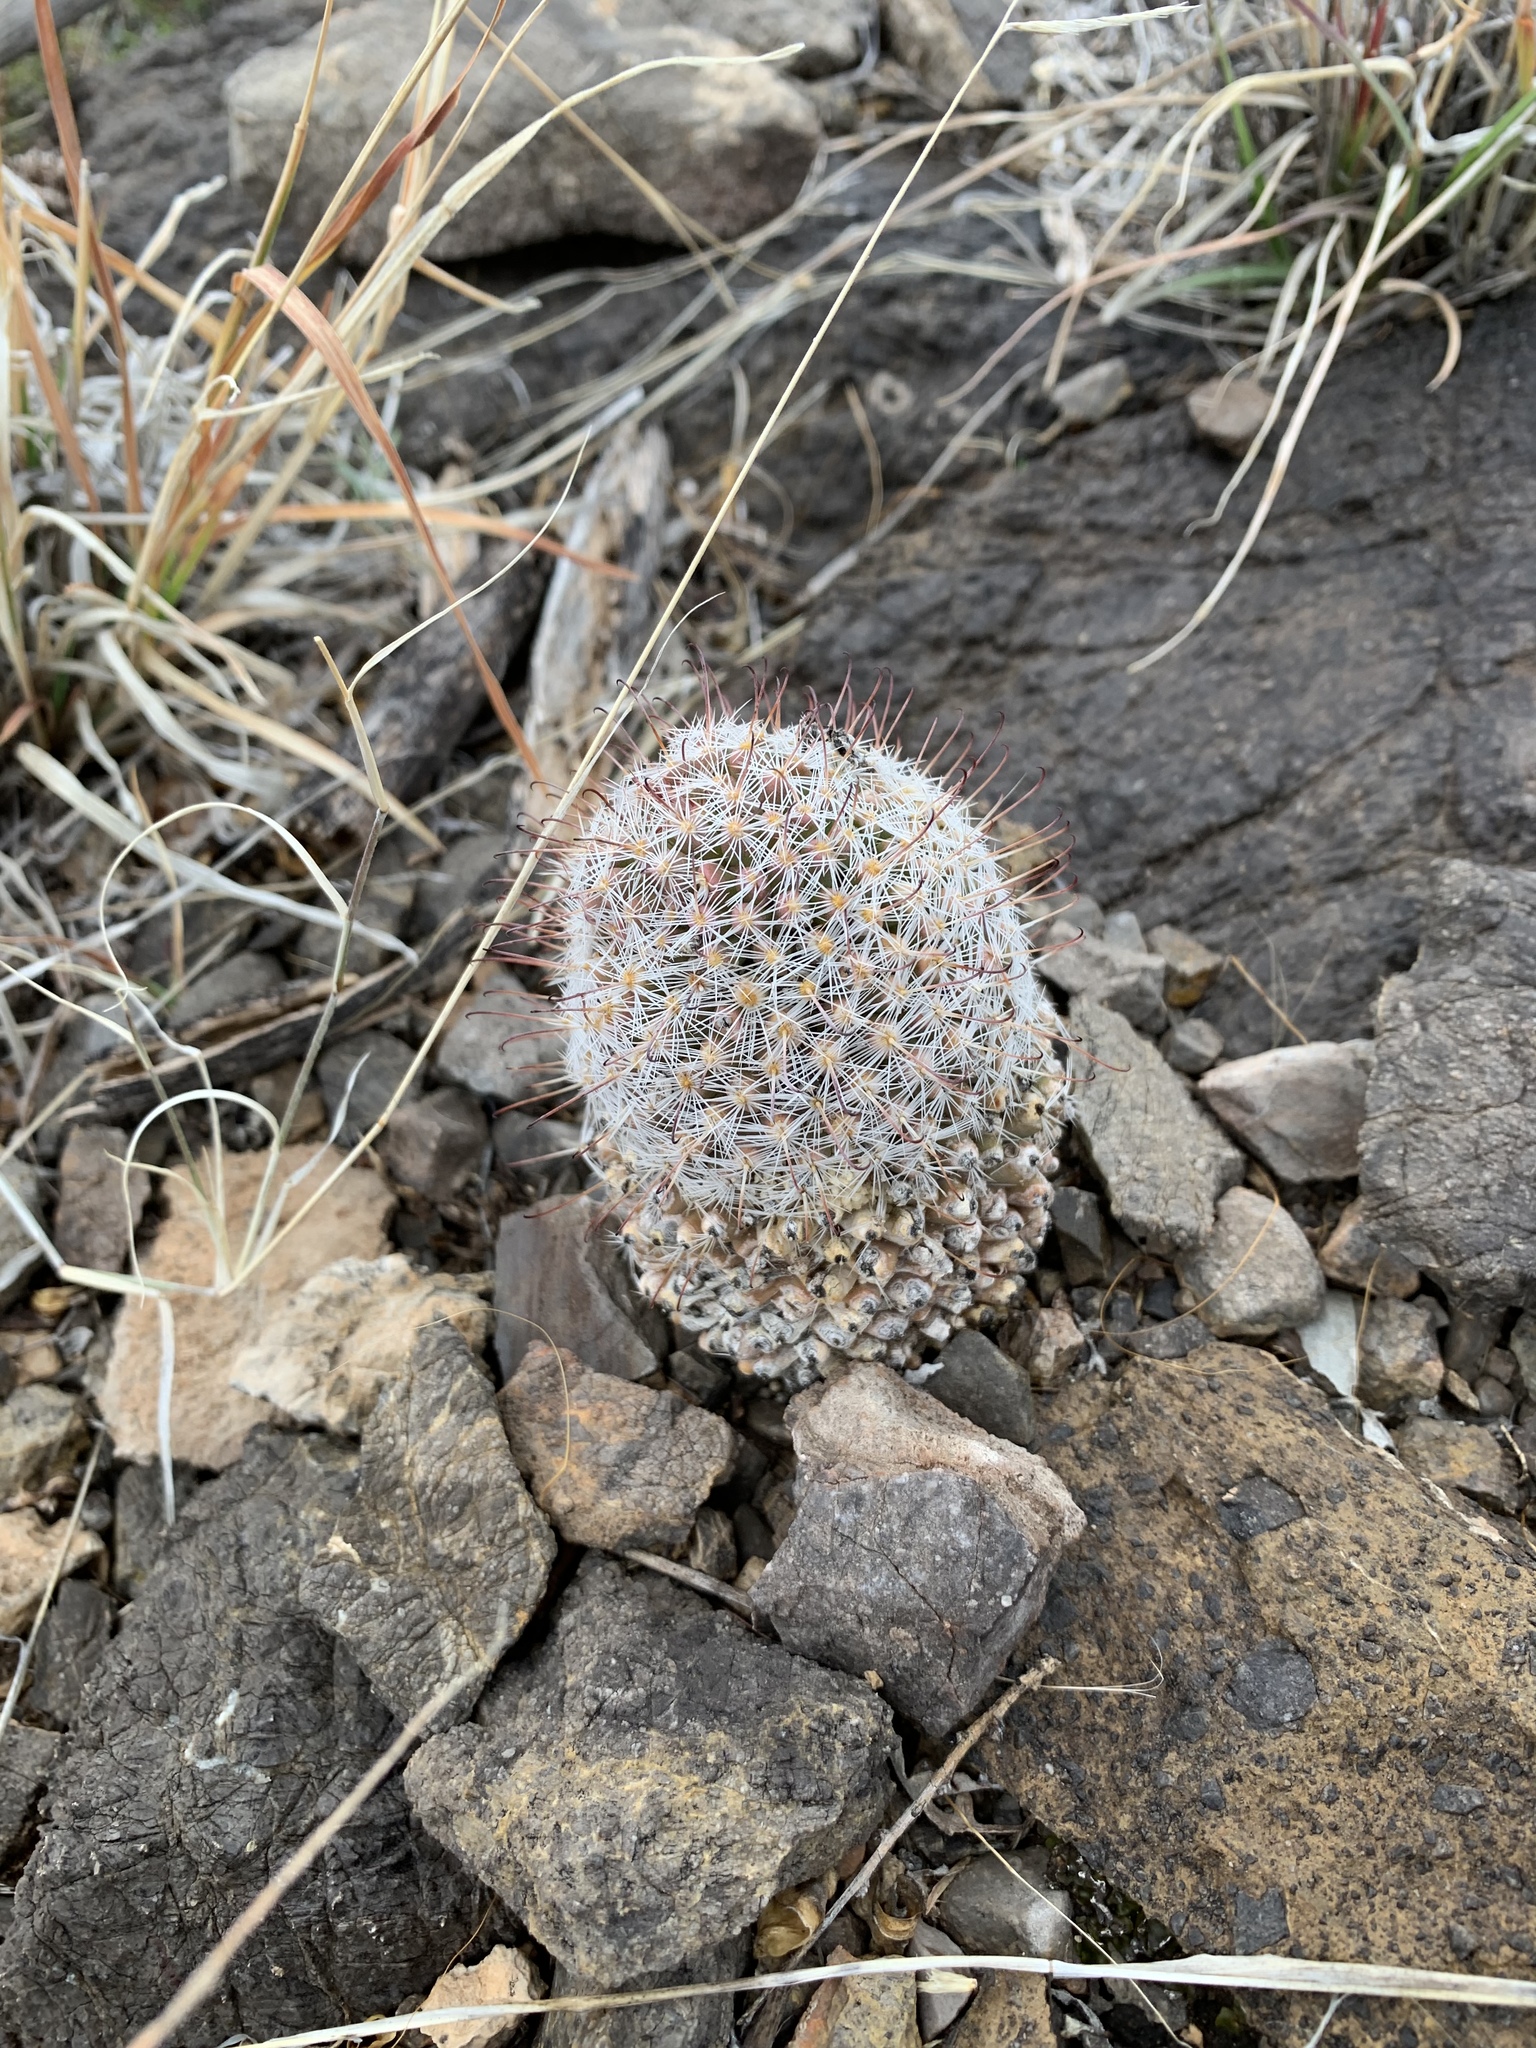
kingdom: Plantae
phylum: Tracheophyta
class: Magnoliopsida
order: Caryophyllales
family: Cactaceae
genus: Cochemiea
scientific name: Cochemiea grahamii
